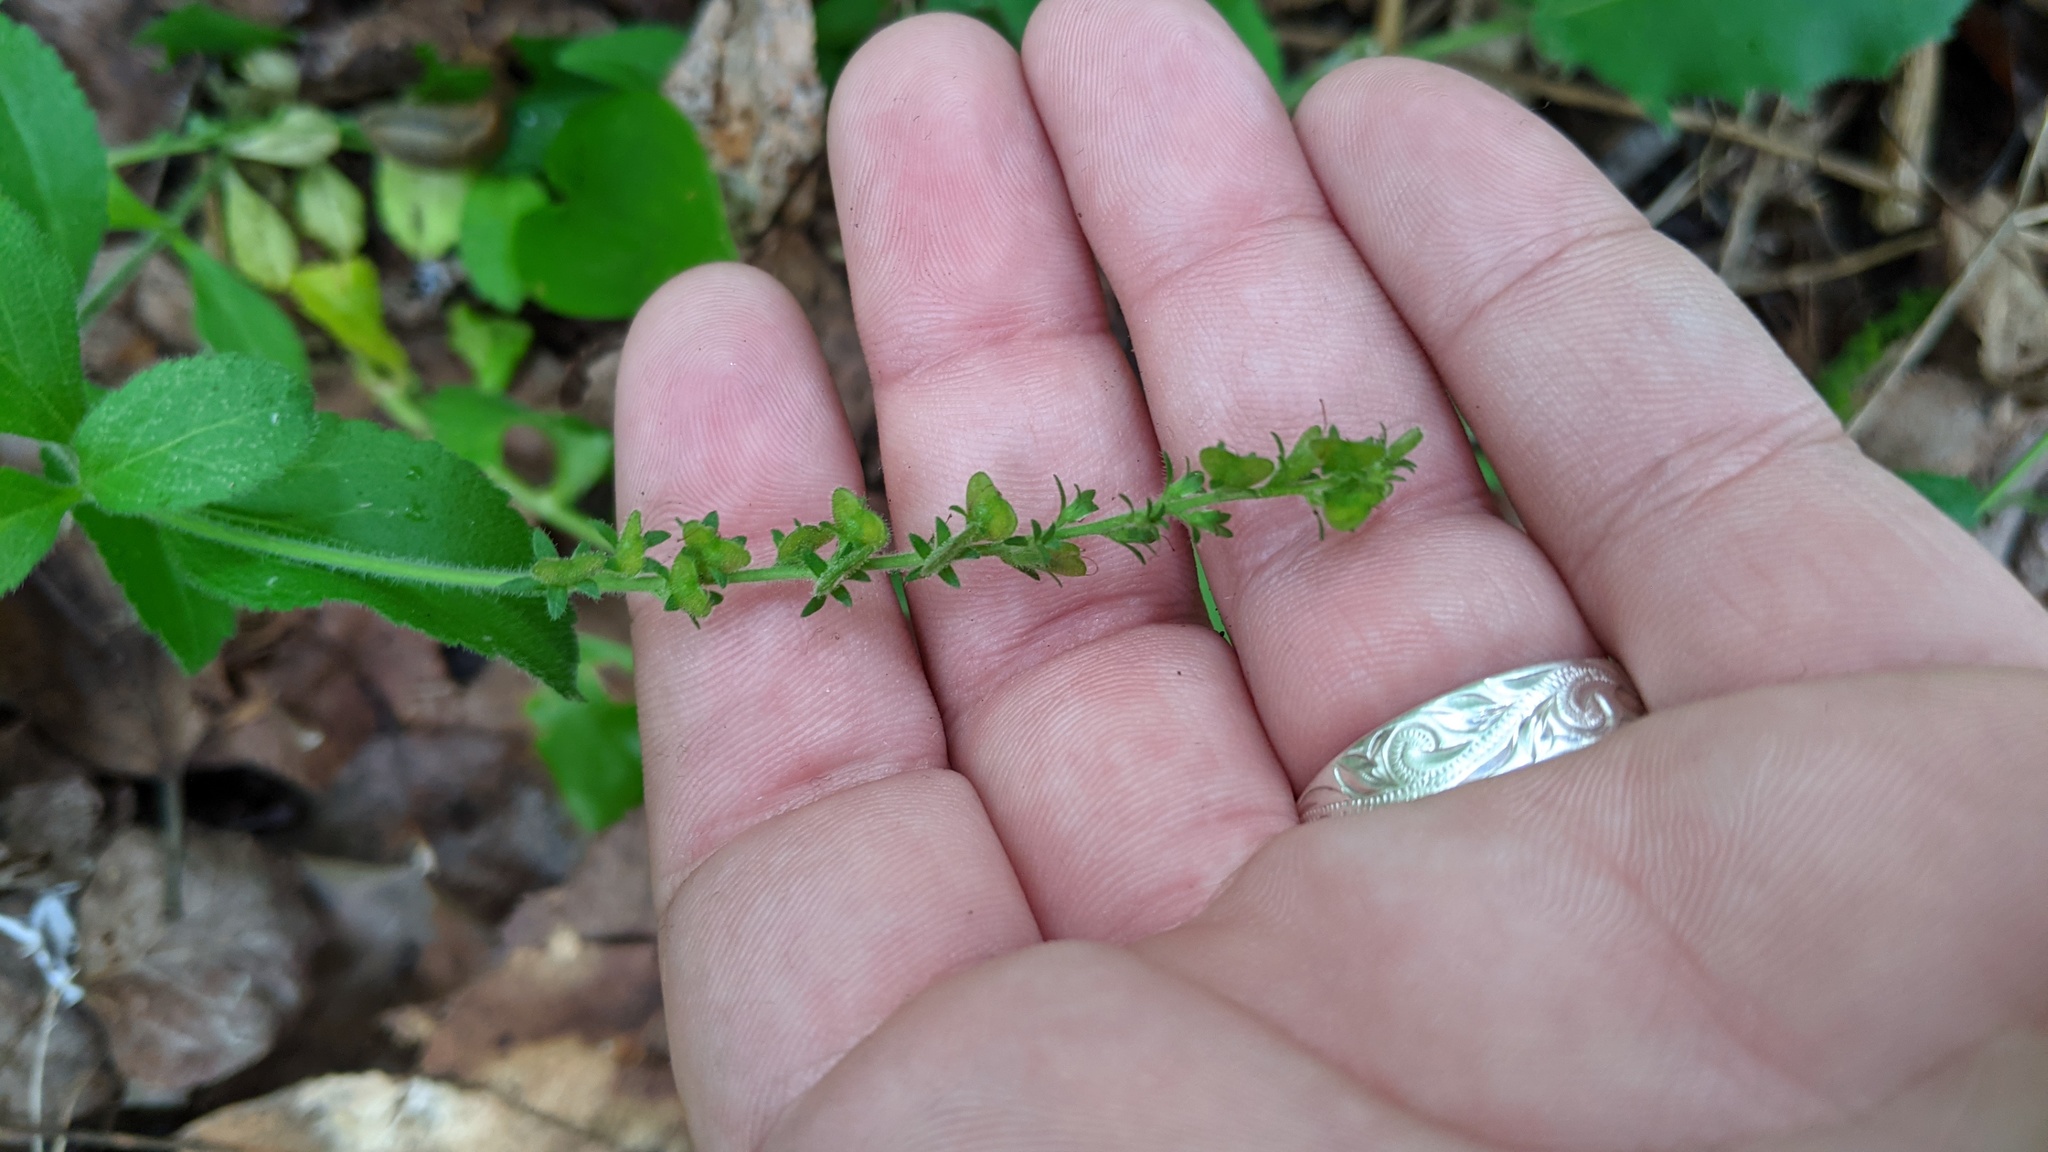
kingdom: Plantae
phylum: Tracheophyta
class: Magnoliopsida
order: Lamiales
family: Plantaginaceae
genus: Veronica
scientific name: Veronica officinalis
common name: Common speedwell
